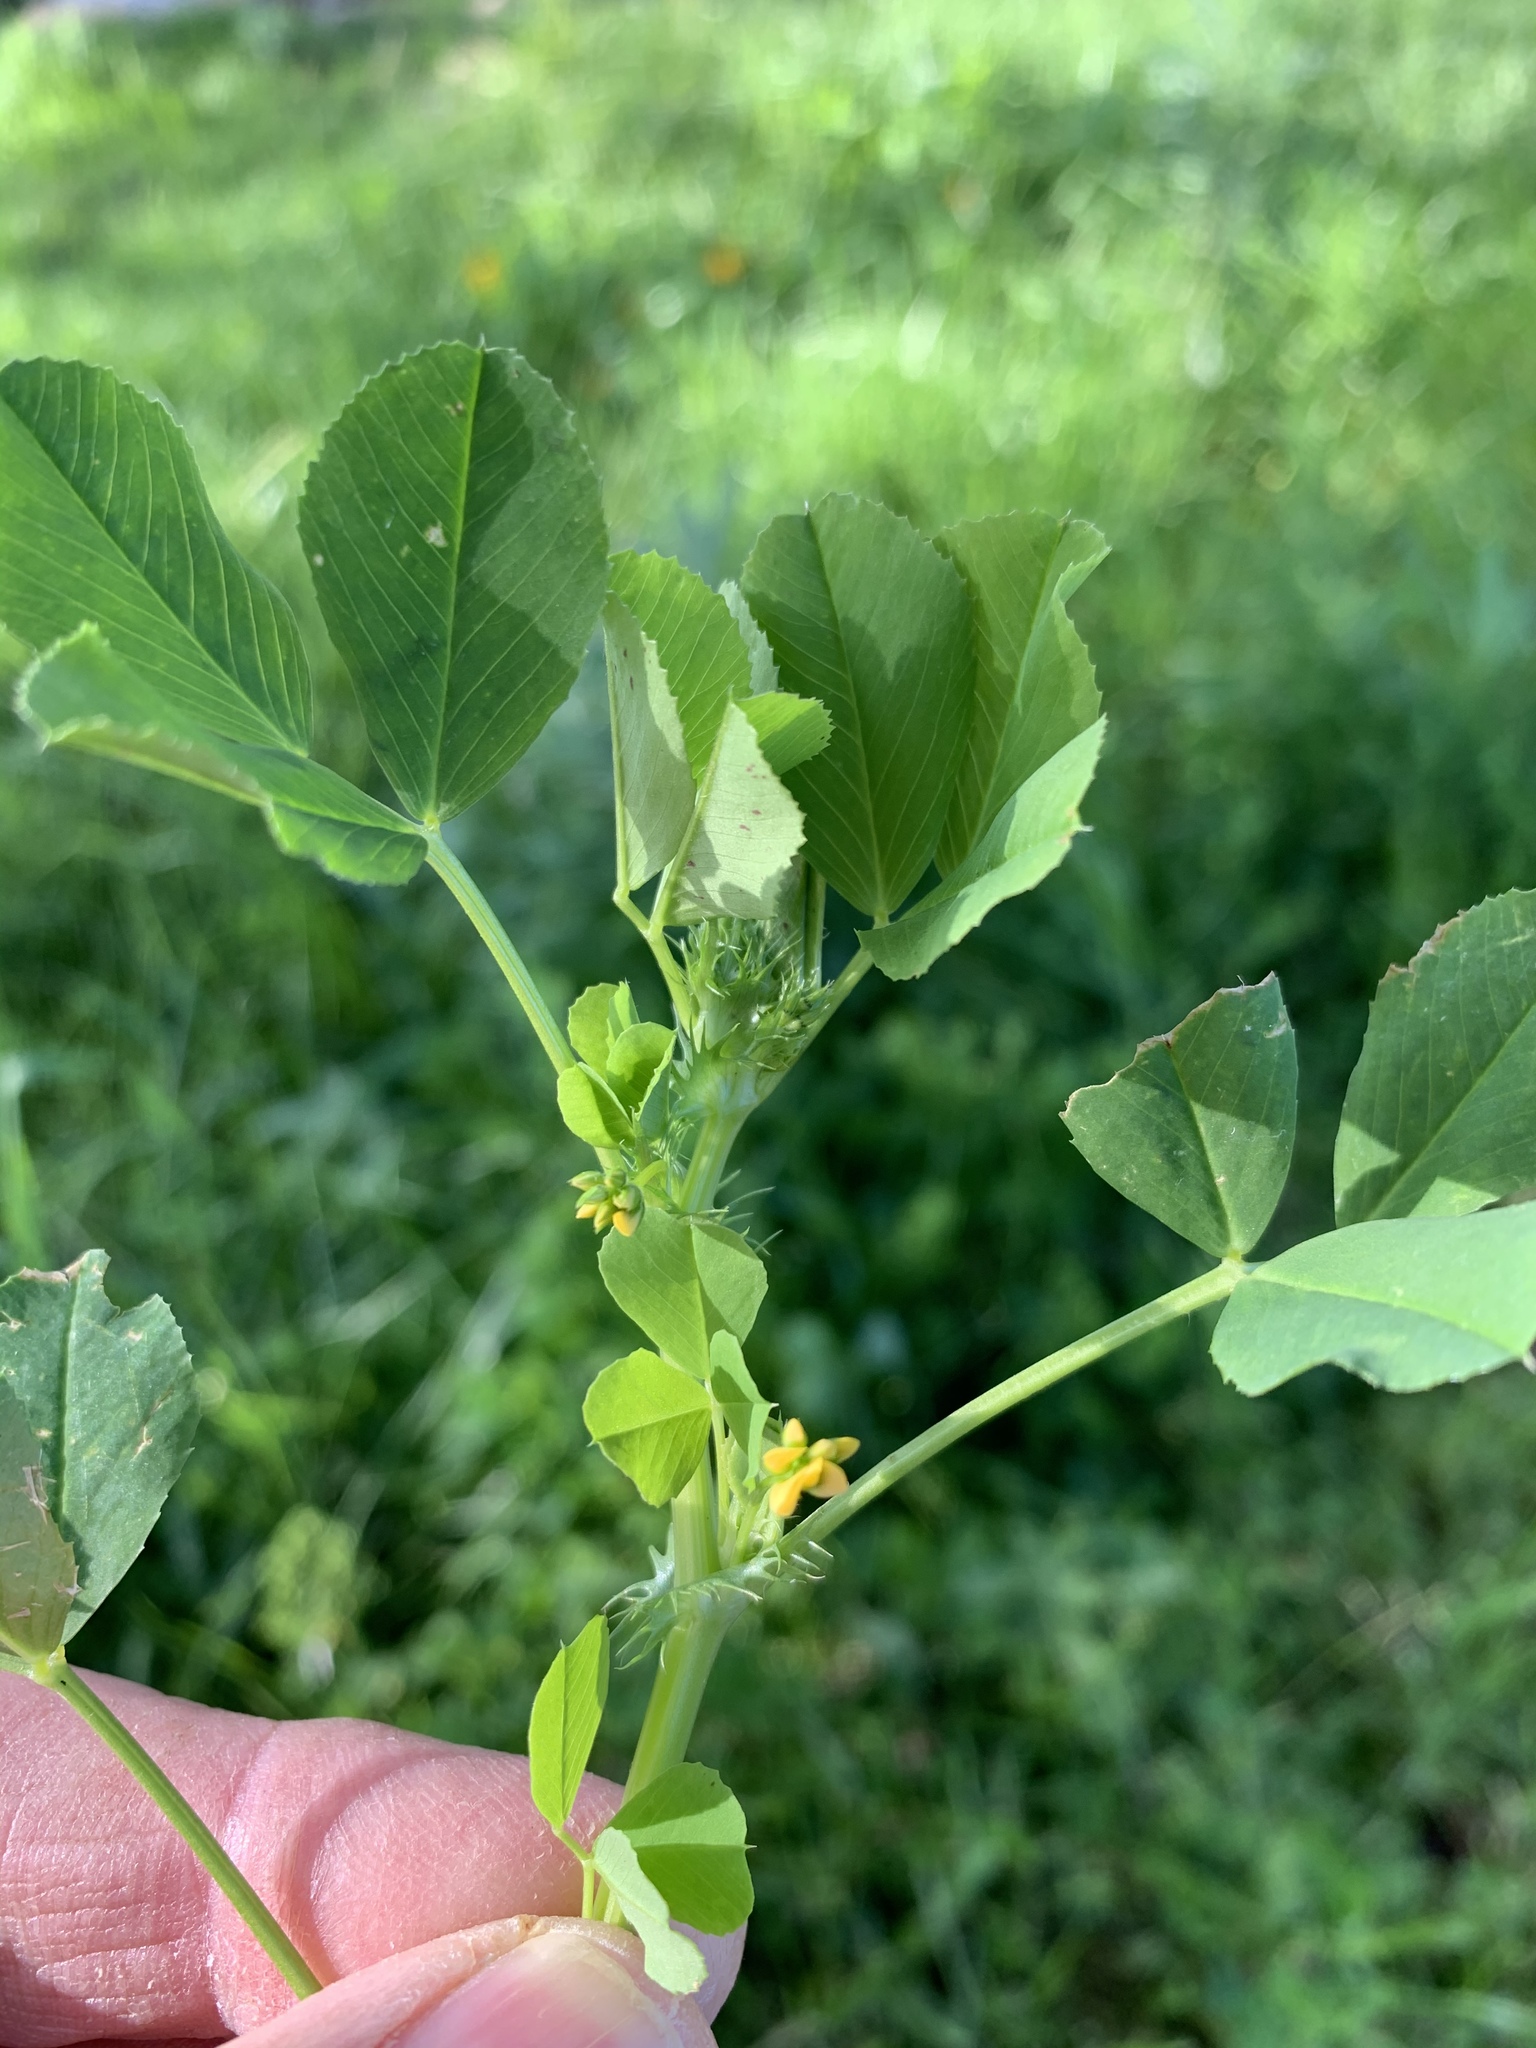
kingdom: Plantae
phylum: Tracheophyta
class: Magnoliopsida
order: Fabales
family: Fabaceae
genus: Medicago
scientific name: Medicago polymorpha
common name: Burclover
